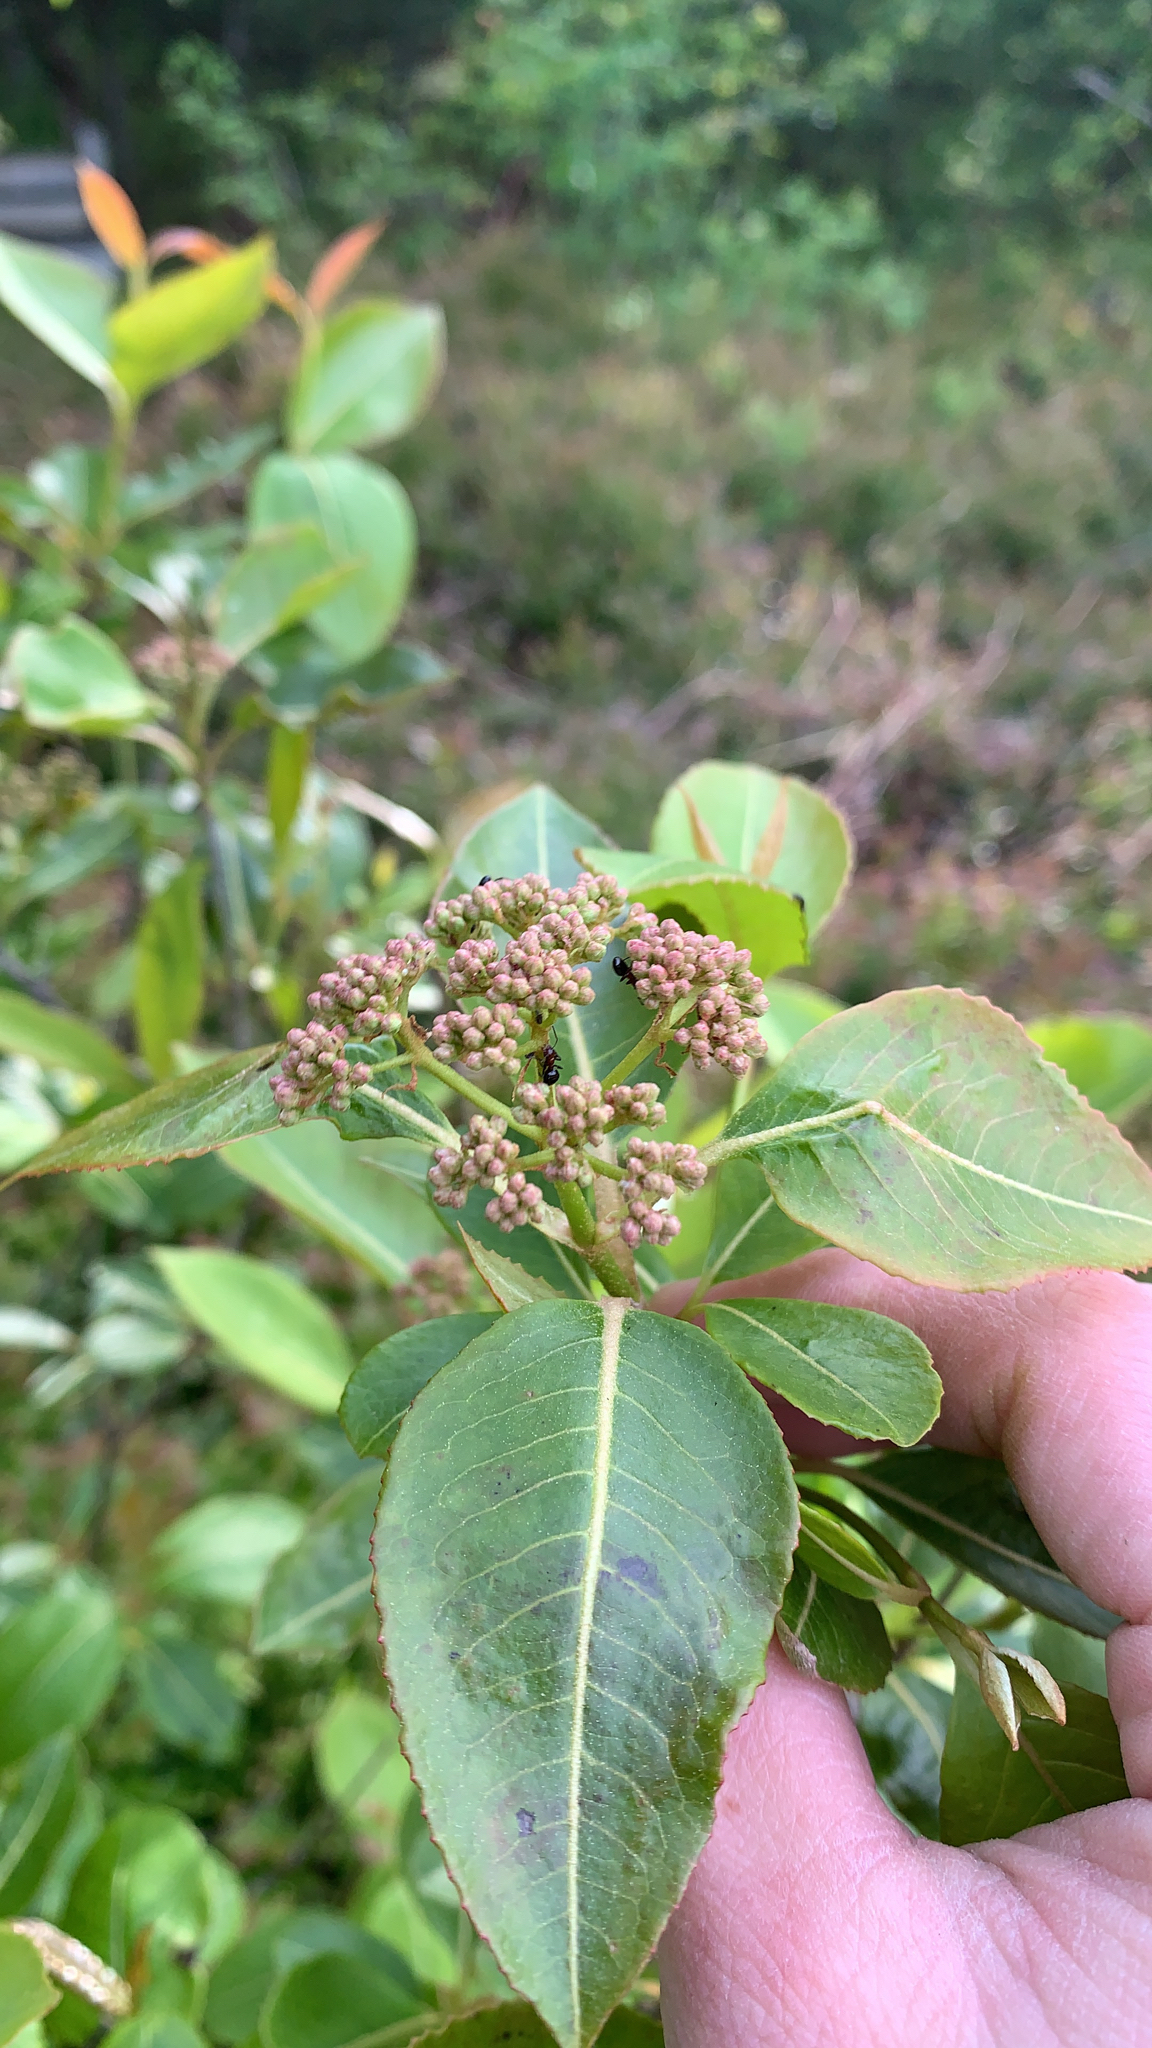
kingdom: Plantae
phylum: Tracheophyta
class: Magnoliopsida
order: Dipsacales
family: Viburnaceae
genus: Viburnum
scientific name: Viburnum cassinoides
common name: Swamp haw
